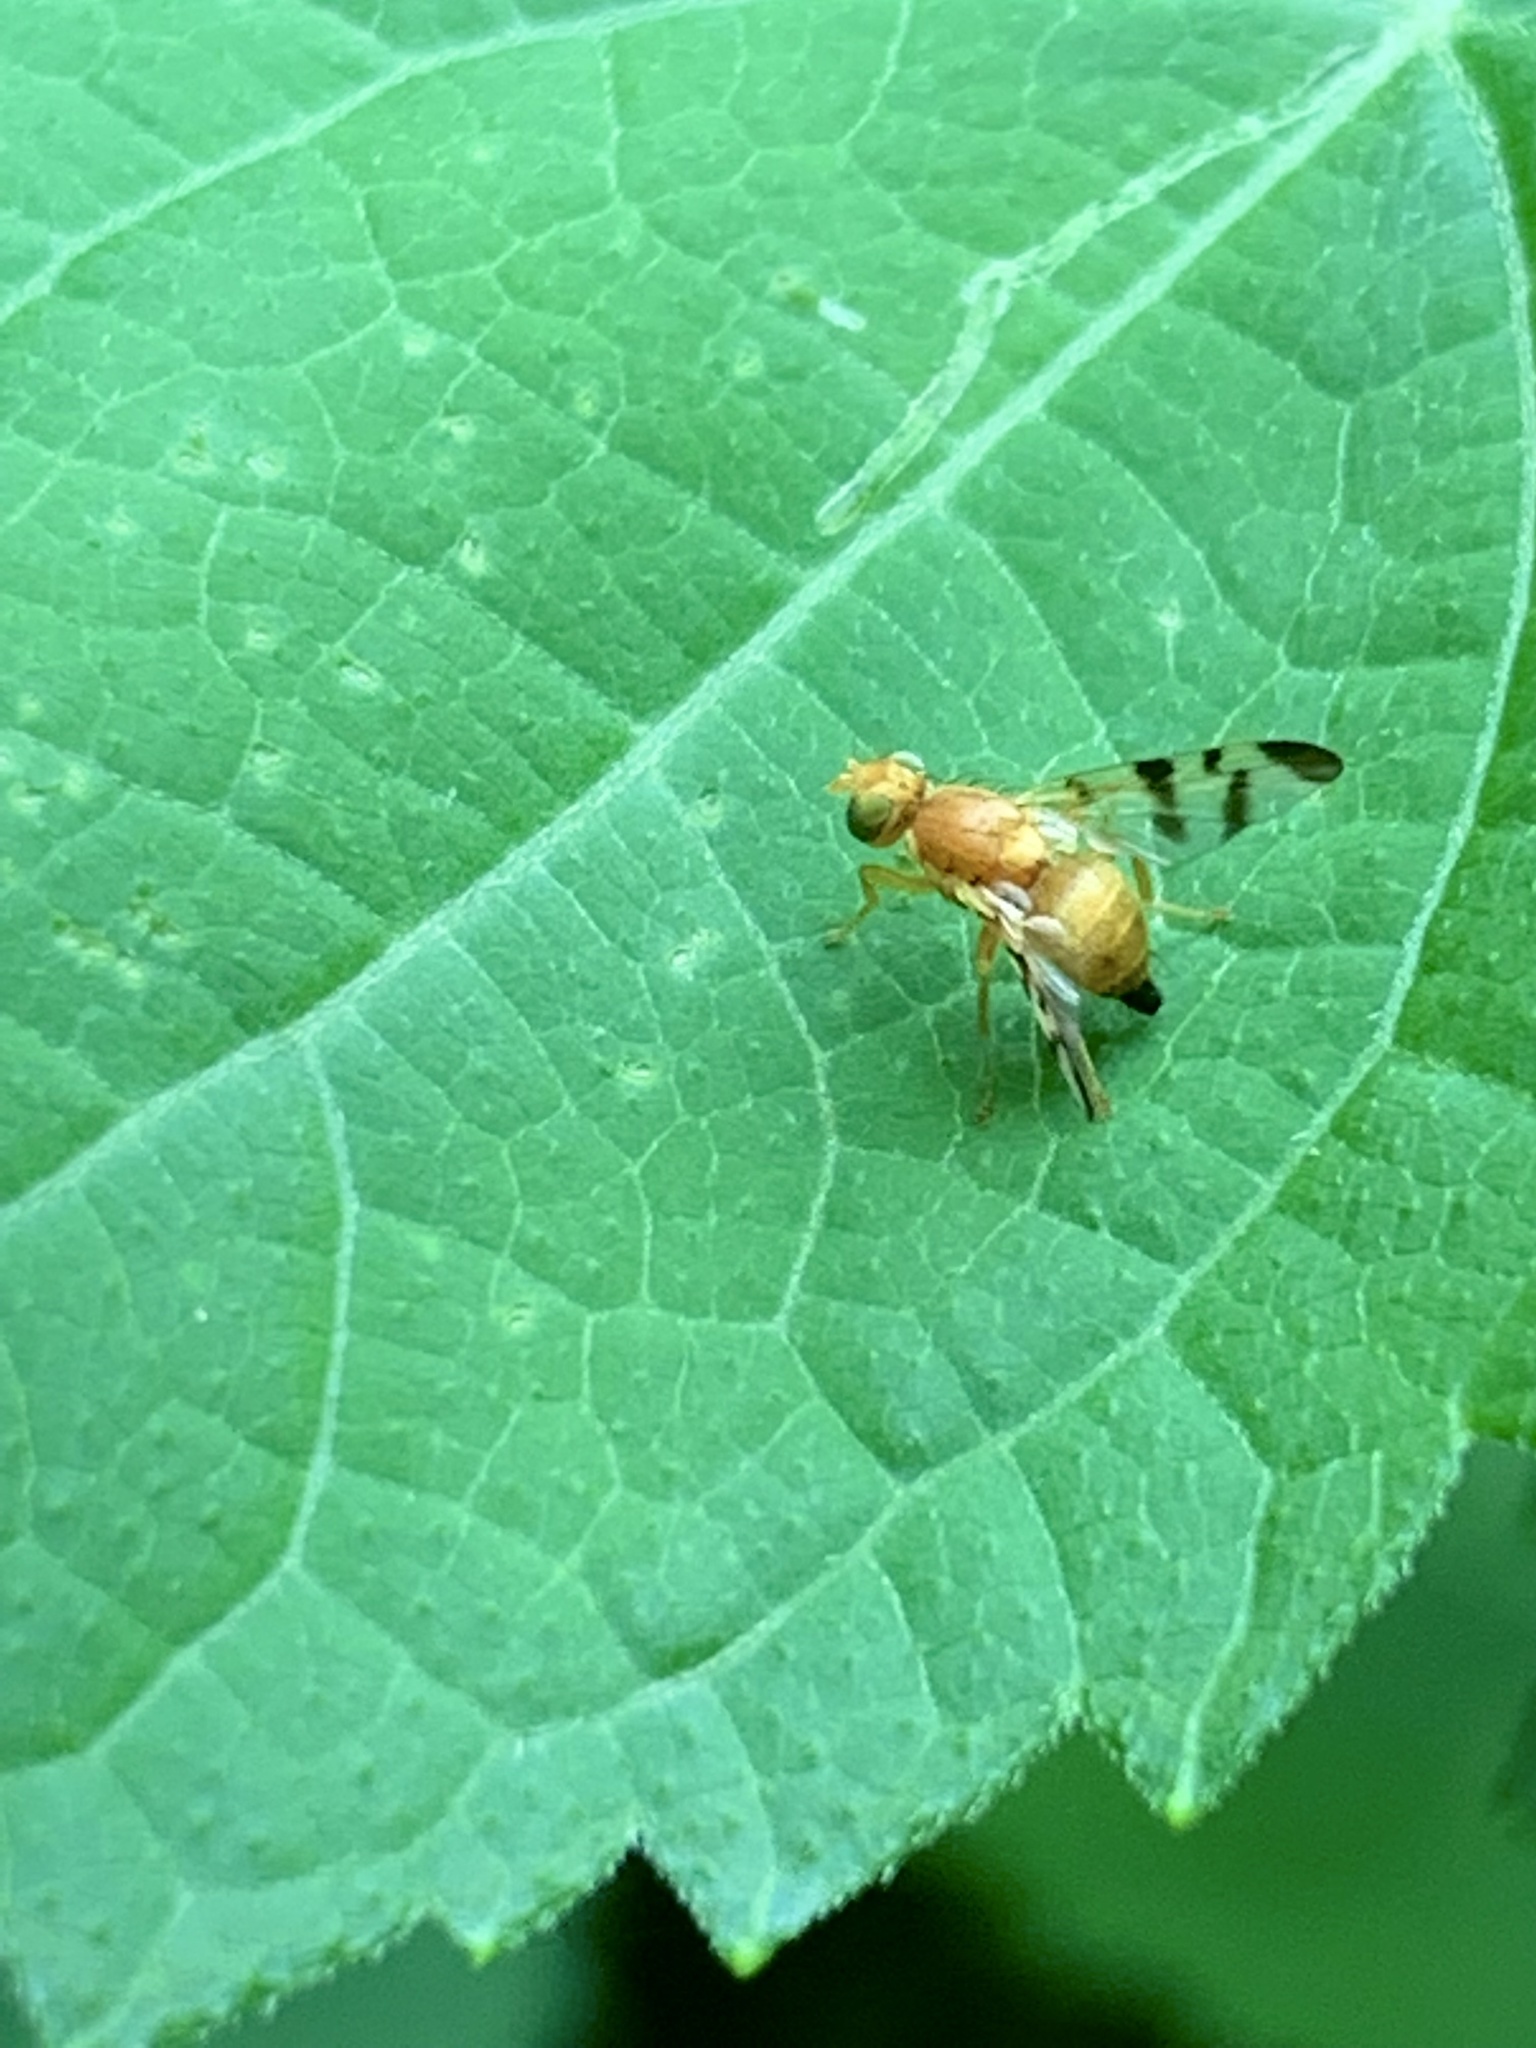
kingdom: Animalia
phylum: Arthropoda
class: Insecta
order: Diptera
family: Tephritidae
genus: Rhagoletis
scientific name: Rhagoletis meigenii
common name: Fruit fly
